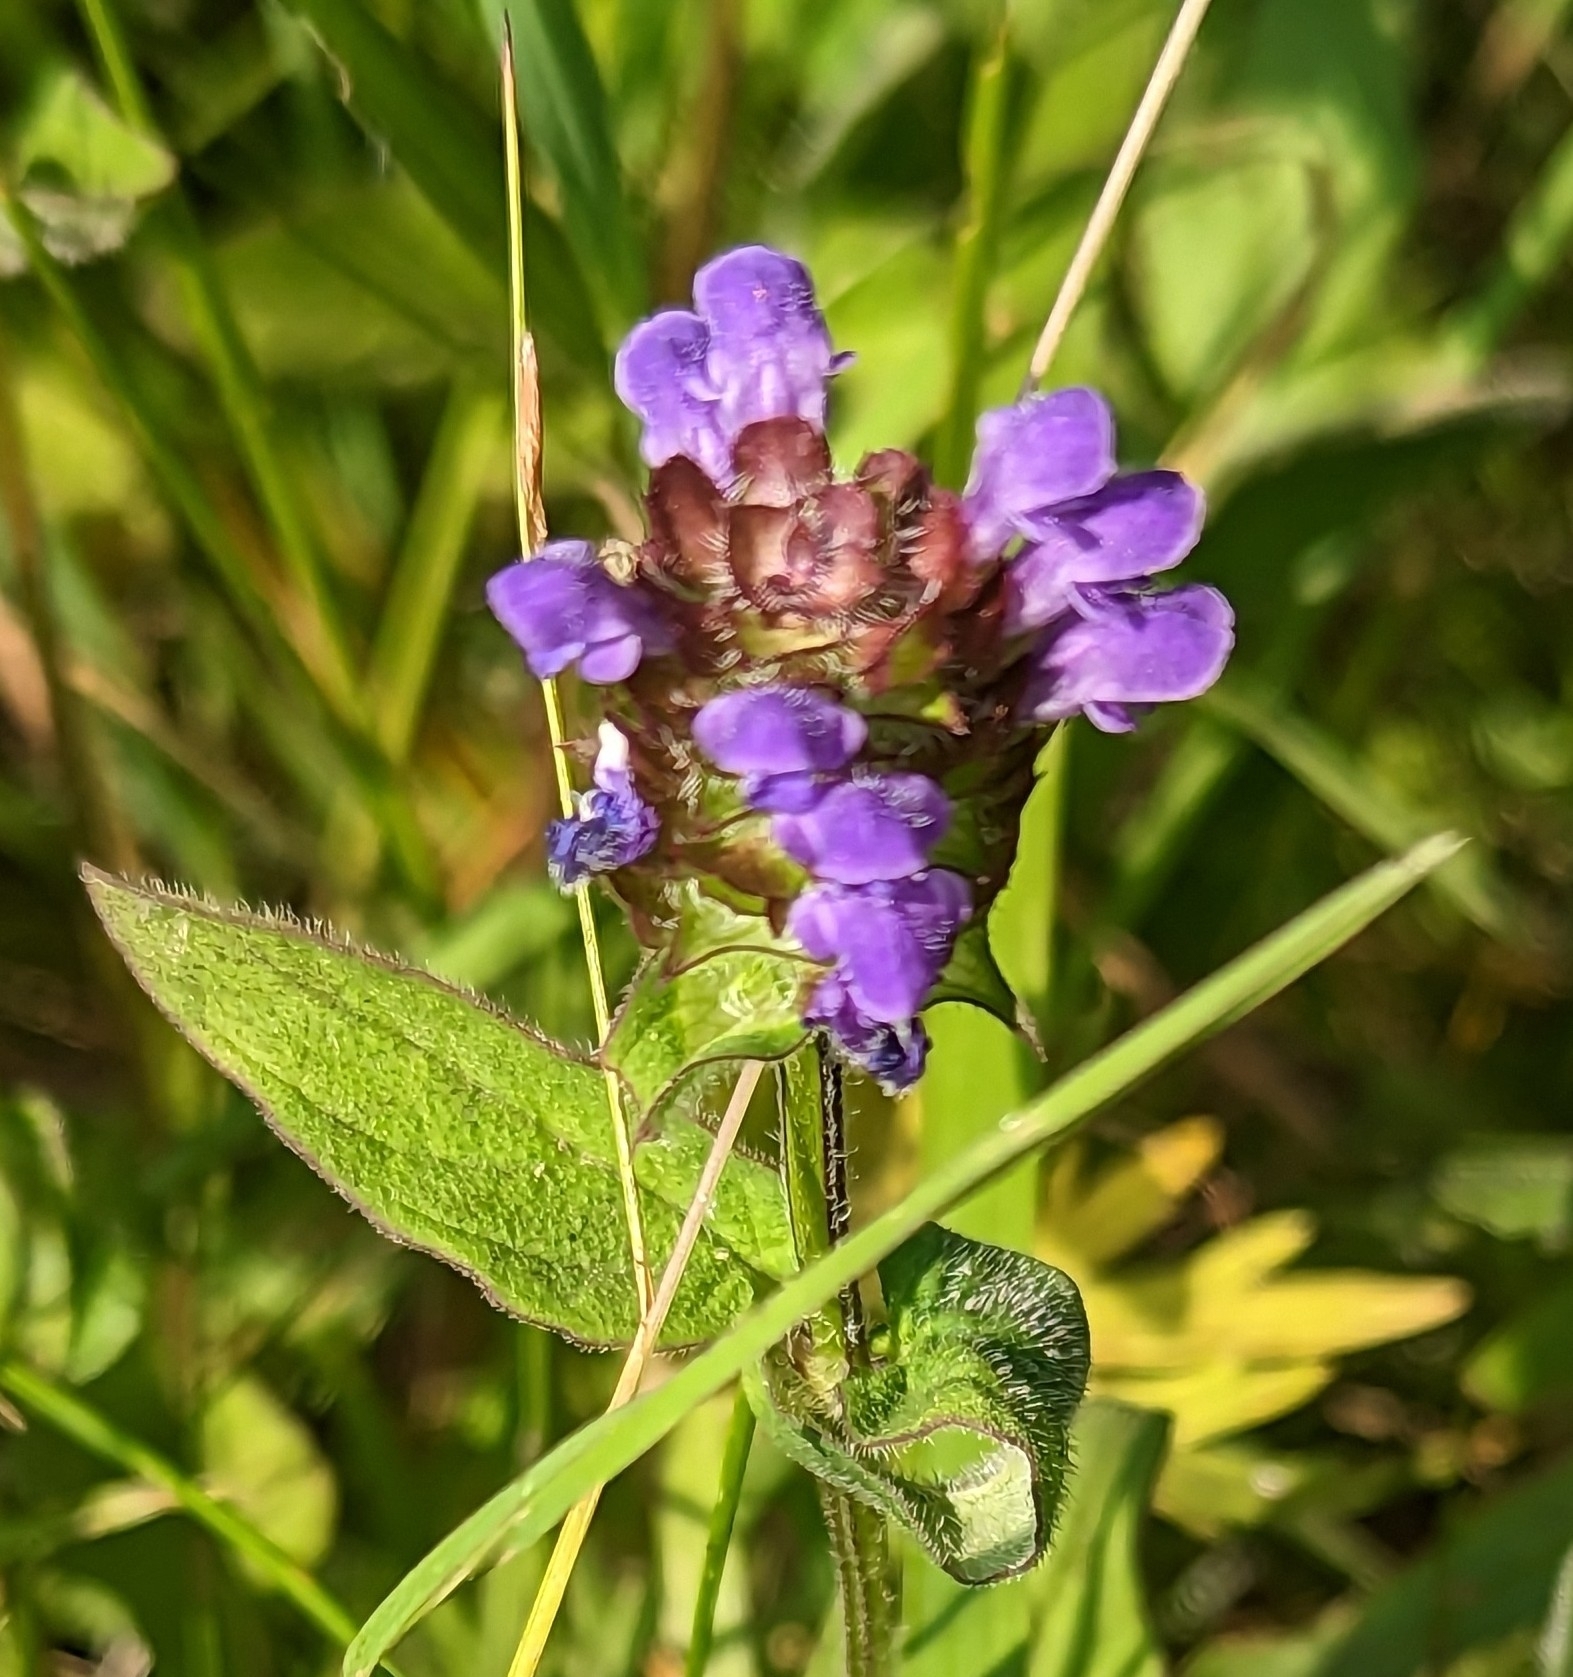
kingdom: Plantae
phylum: Tracheophyta
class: Magnoliopsida
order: Lamiales
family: Lamiaceae
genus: Prunella
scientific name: Prunella vulgaris
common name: Heal-all
